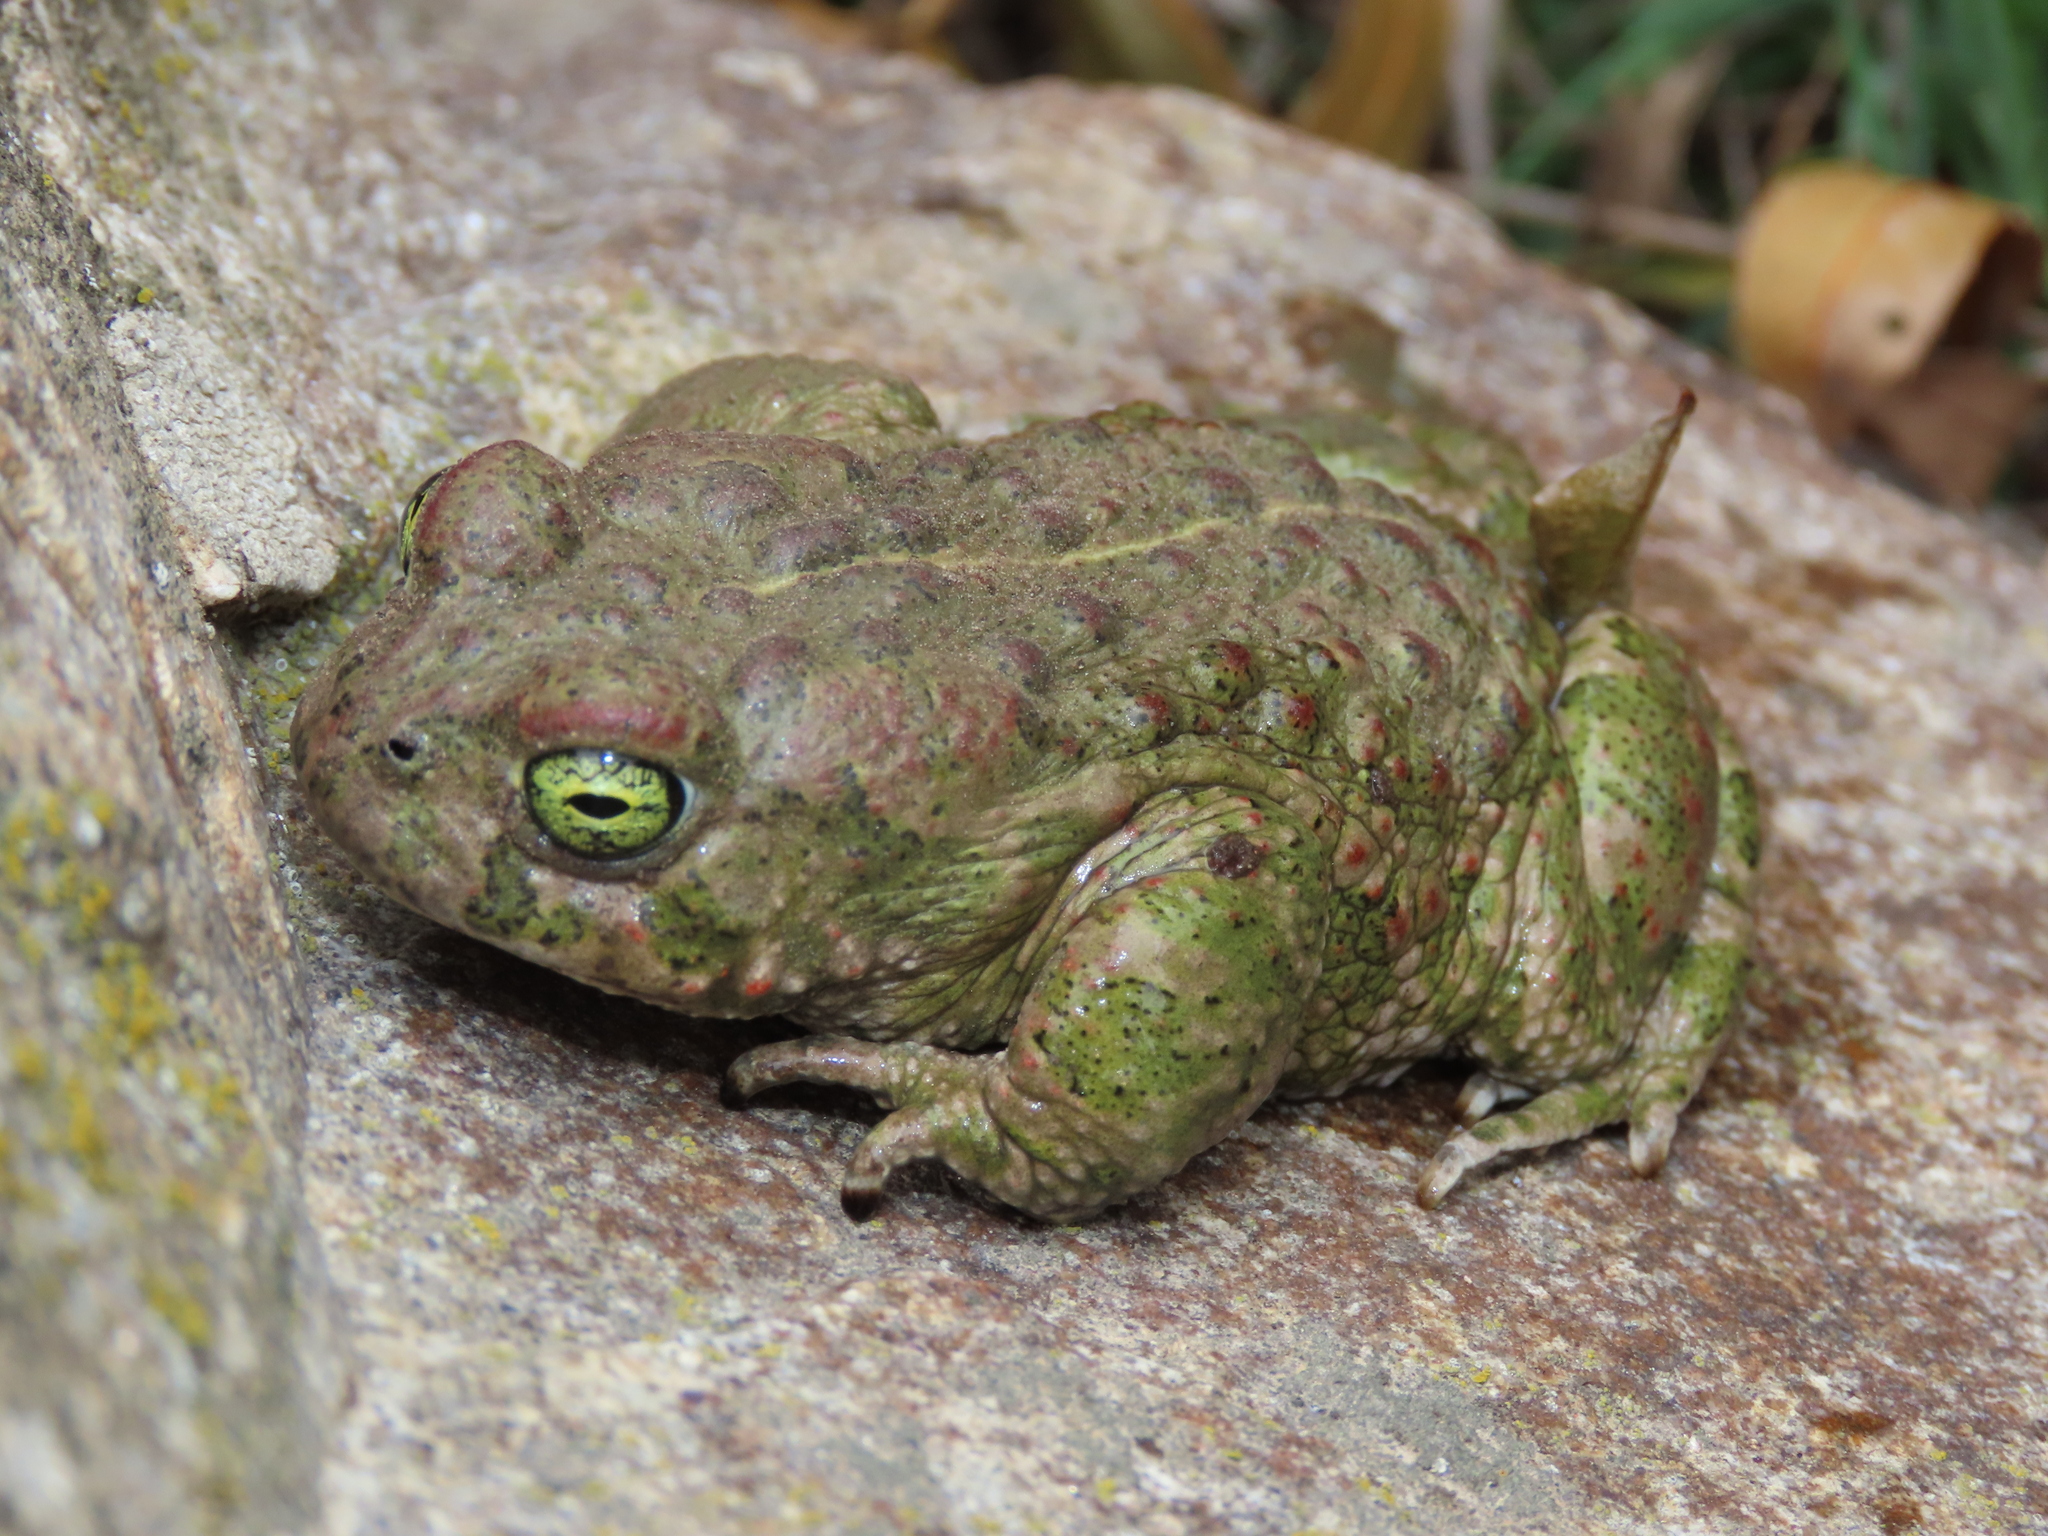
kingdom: Animalia
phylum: Chordata
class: Amphibia
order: Anura
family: Bufonidae
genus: Epidalea
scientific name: Epidalea calamita
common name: Natterjack toad
